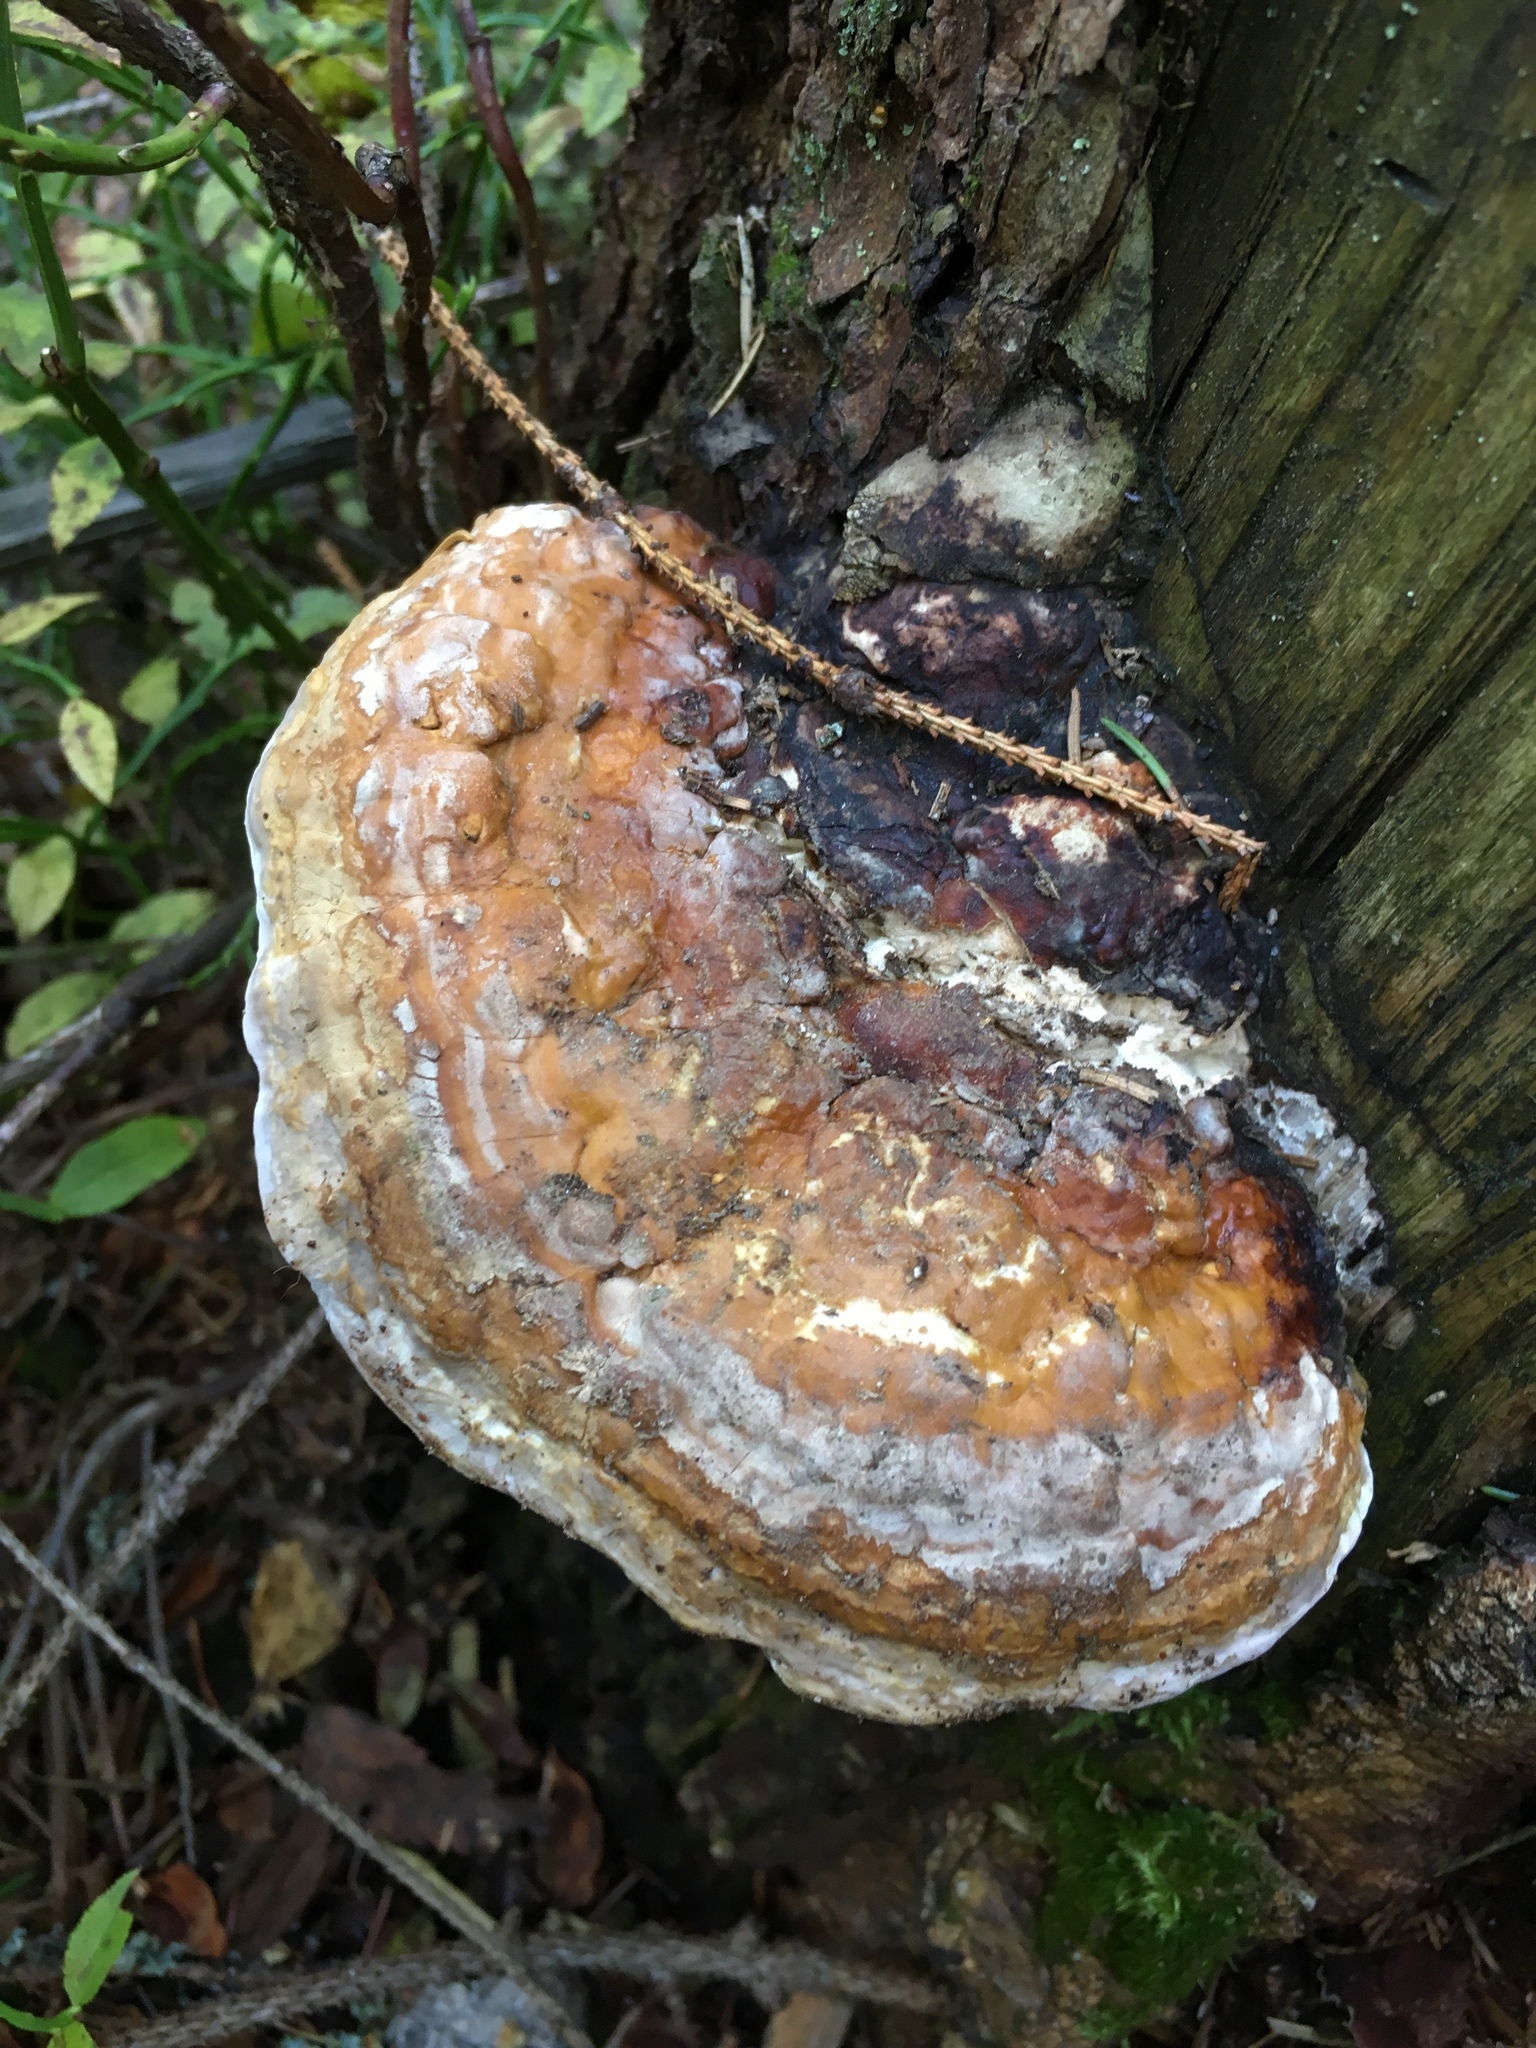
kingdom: Fungi
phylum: Basidiomycota
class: Agaricomycetes
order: Polyporales
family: Fomitopsidaceae
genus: Fomitopsis
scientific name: Fomitopsis pinicola
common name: Red-belted bracket
